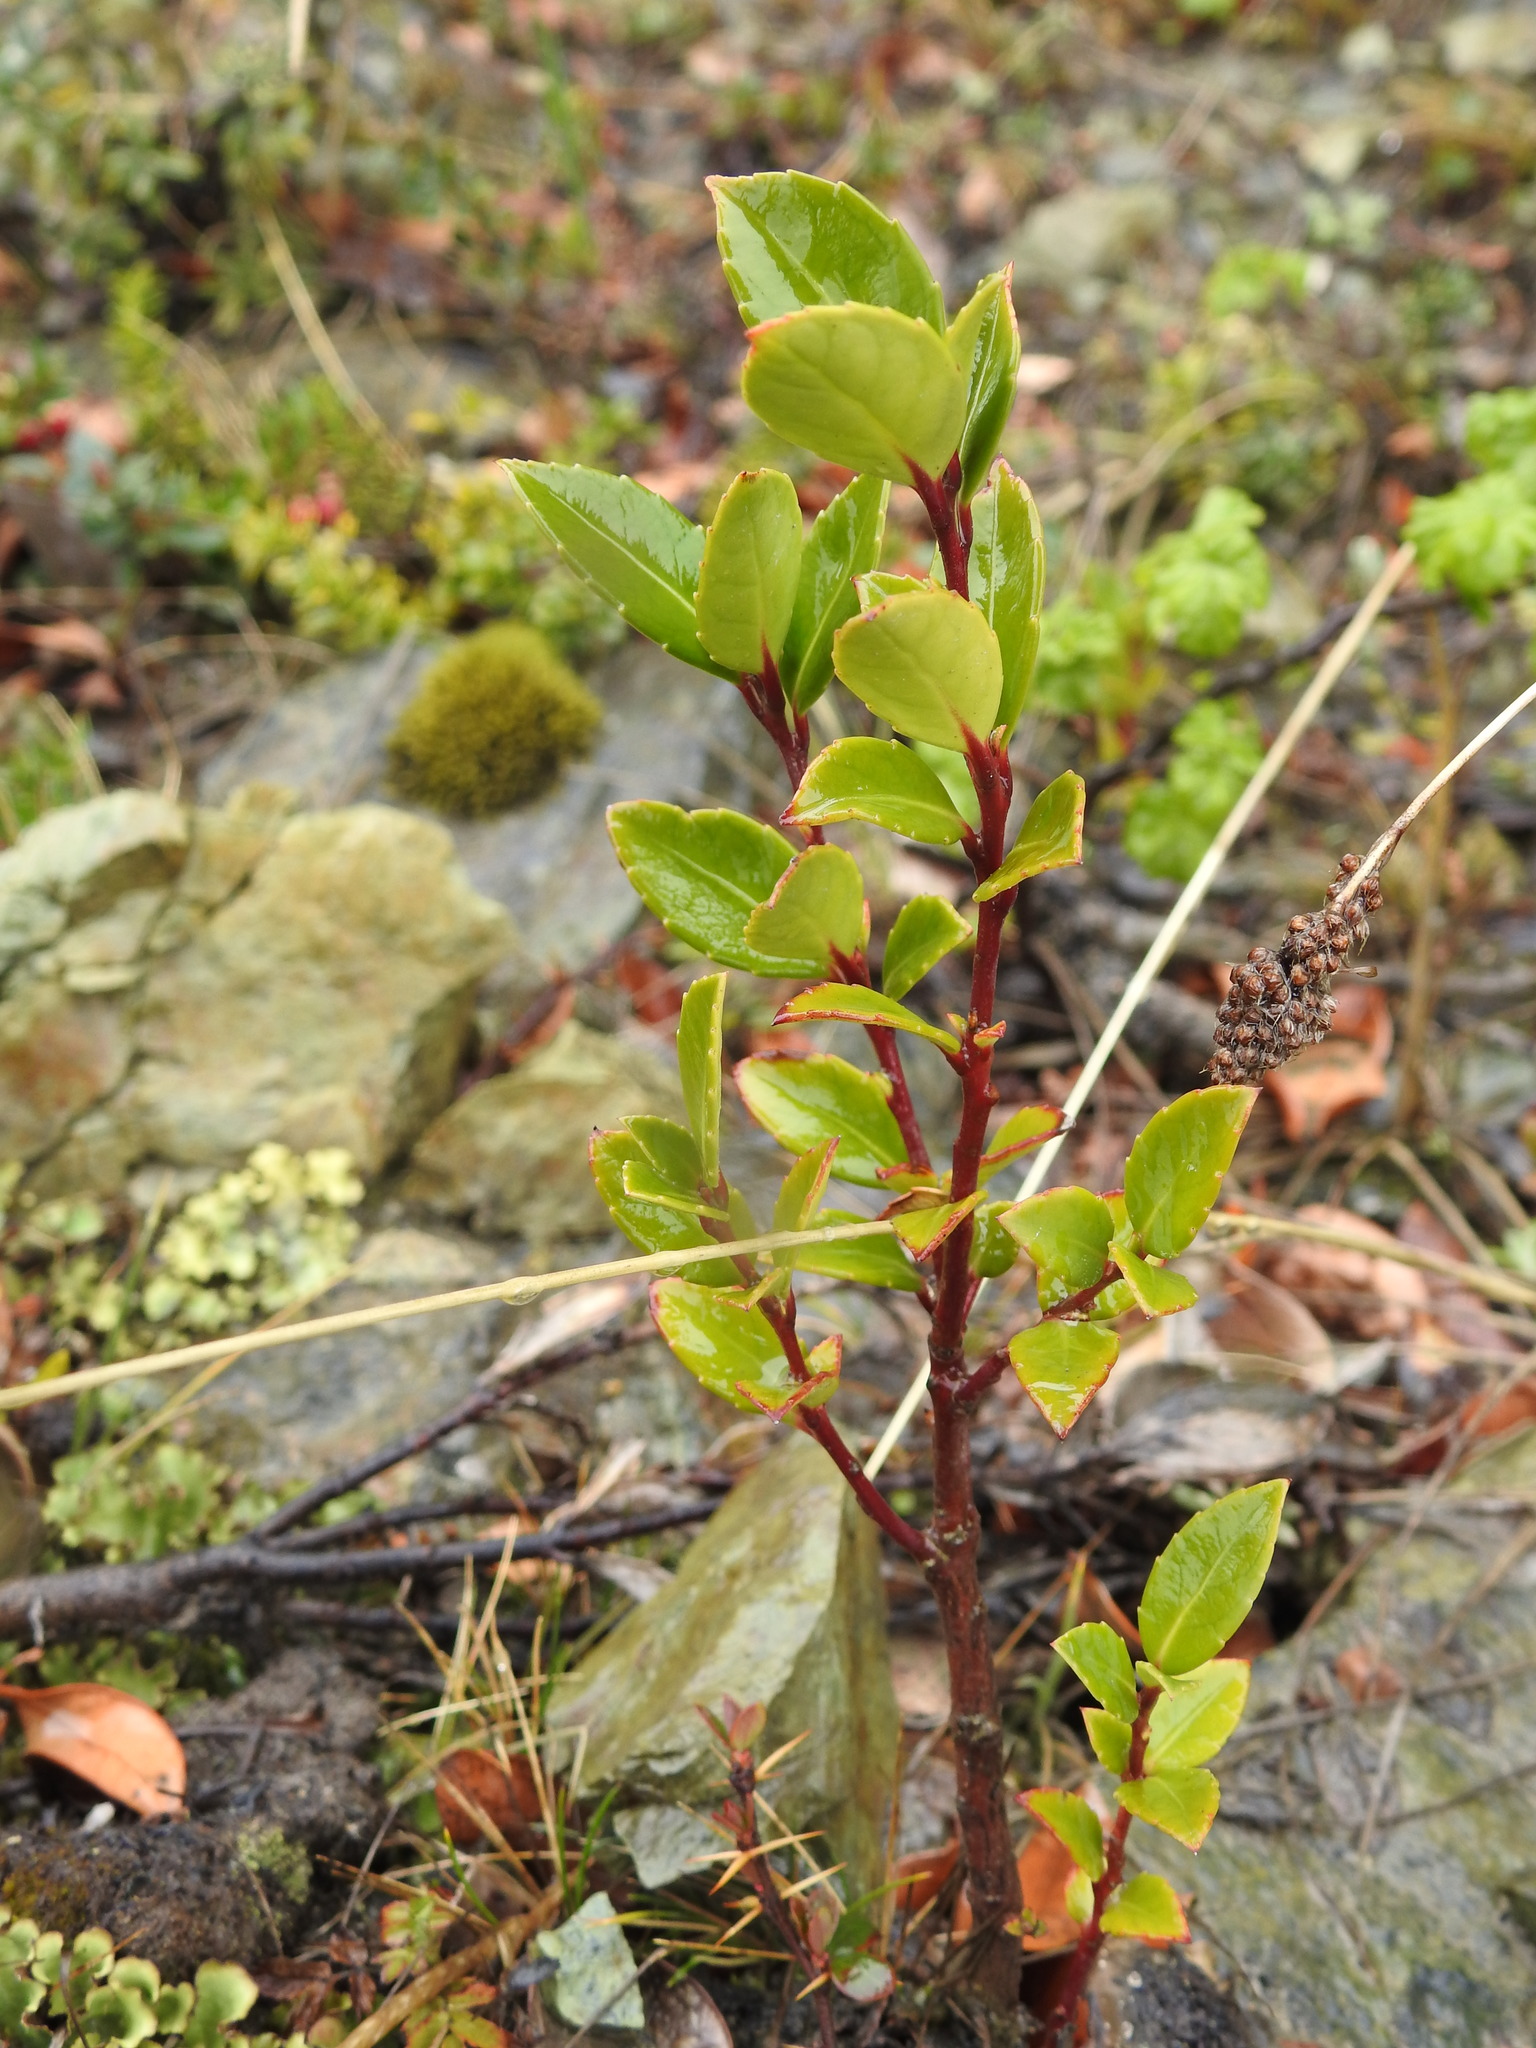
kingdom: Plantae
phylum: Tracheophyta
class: Magnoliopsida
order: Celastrales
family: Celastraceae
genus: Maytenus
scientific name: Maytenus magellanica
